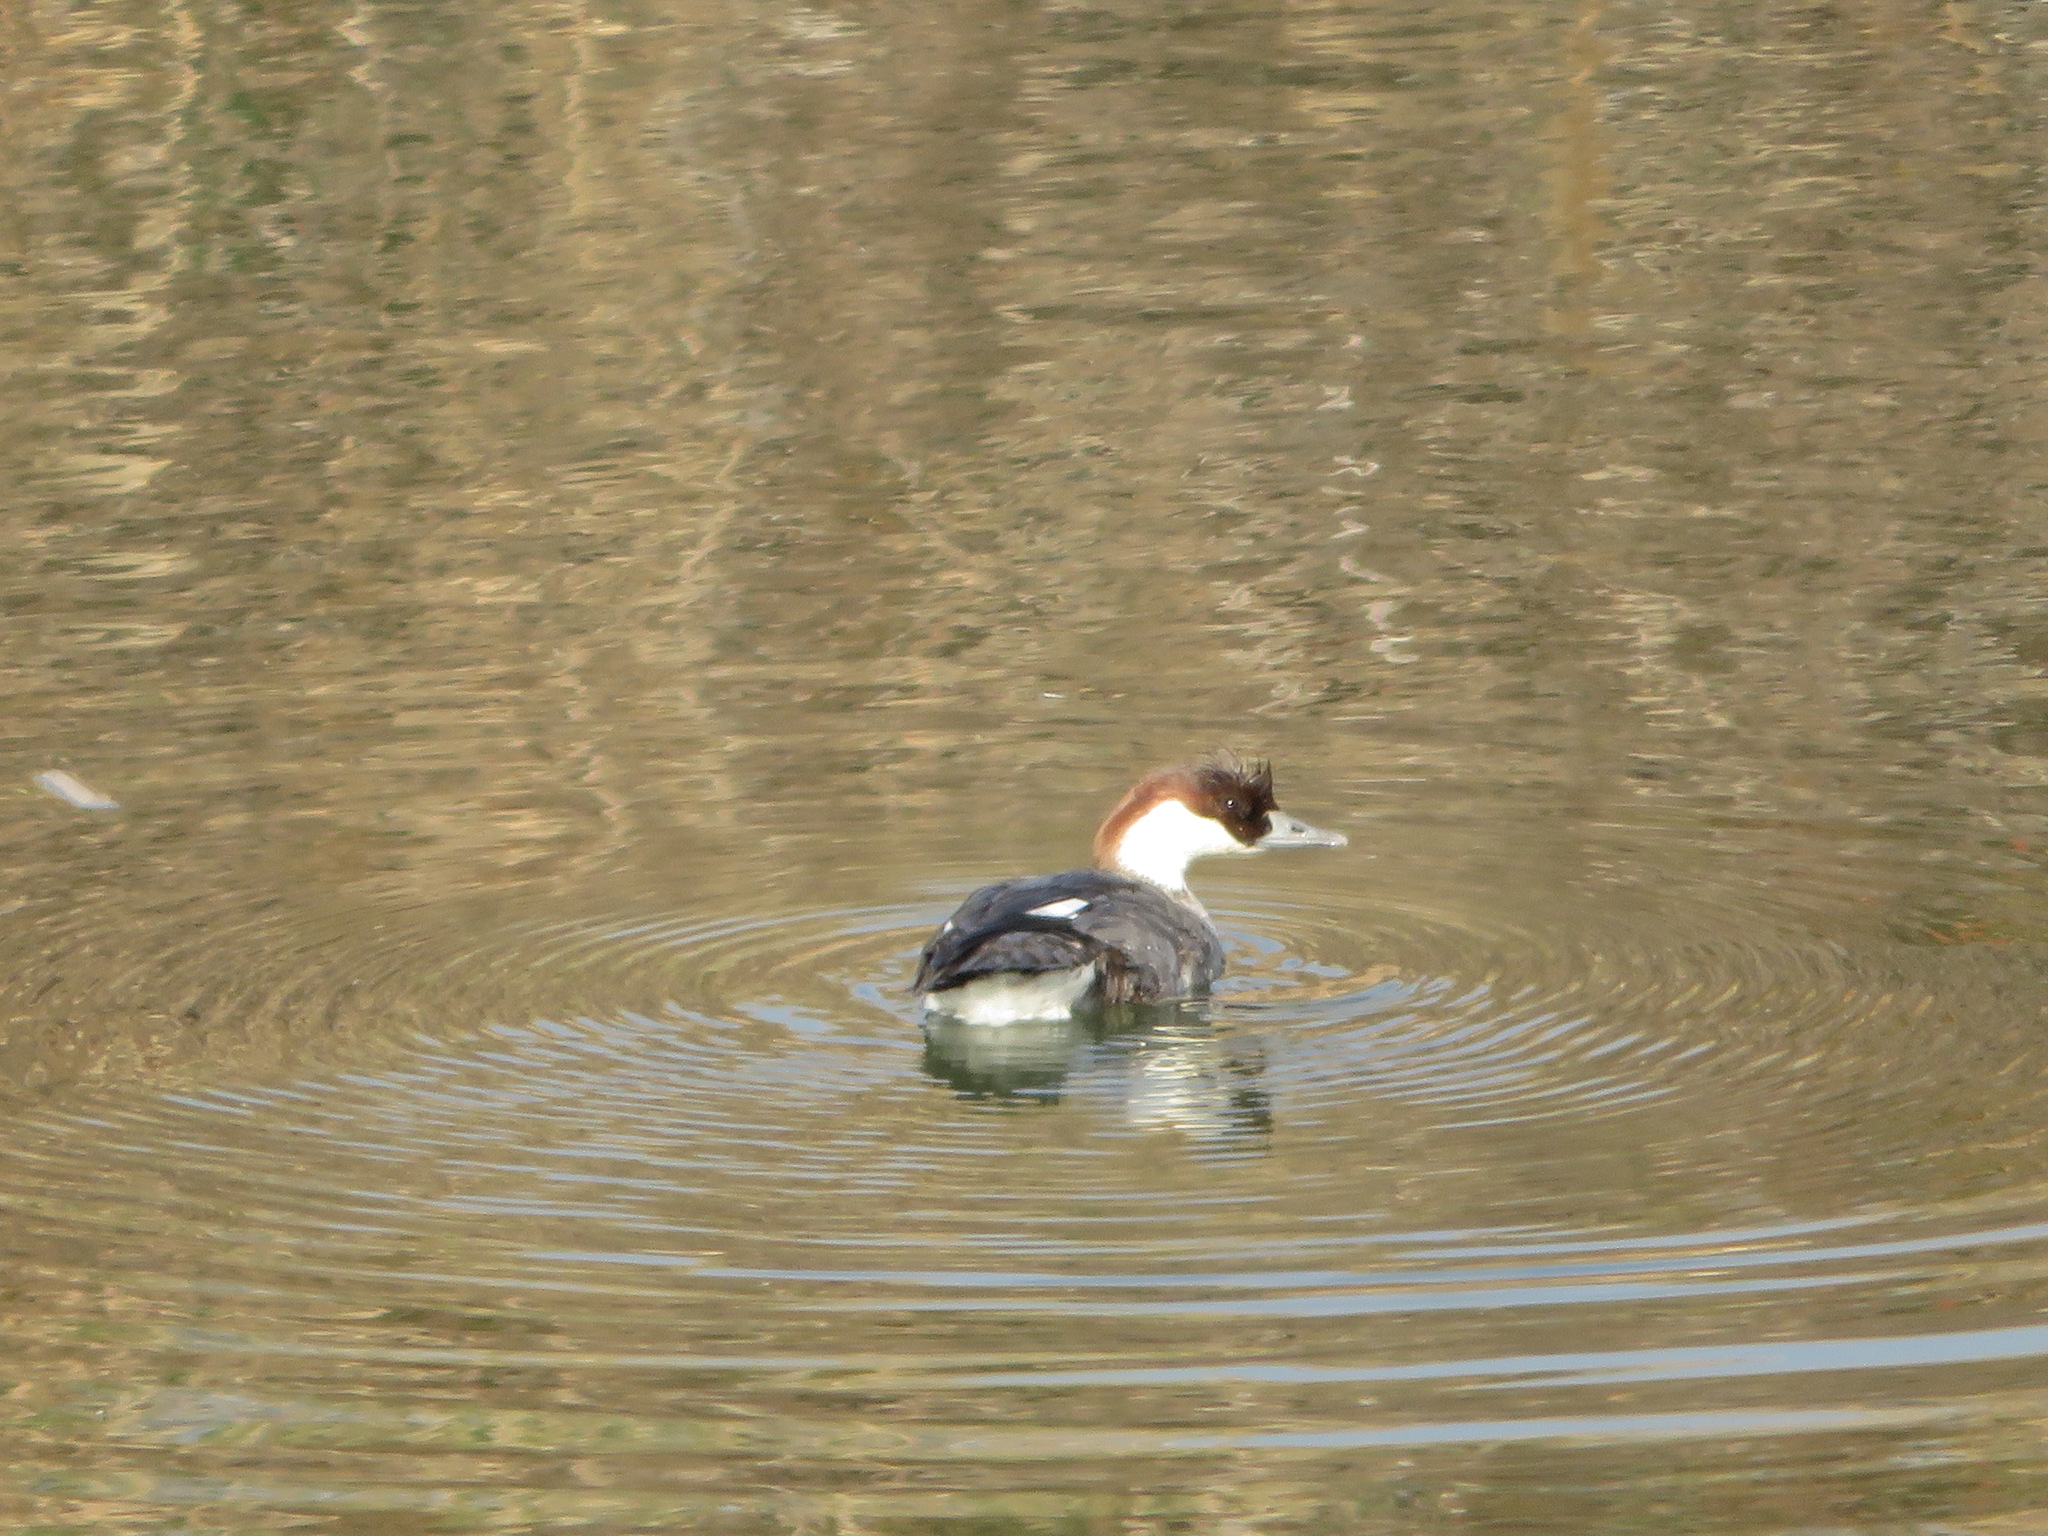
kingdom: Animalia
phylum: Chordata
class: Aves
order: Anseriformes
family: Anatidae
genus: Mergellus
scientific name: Mergellus albellus
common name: Smew
